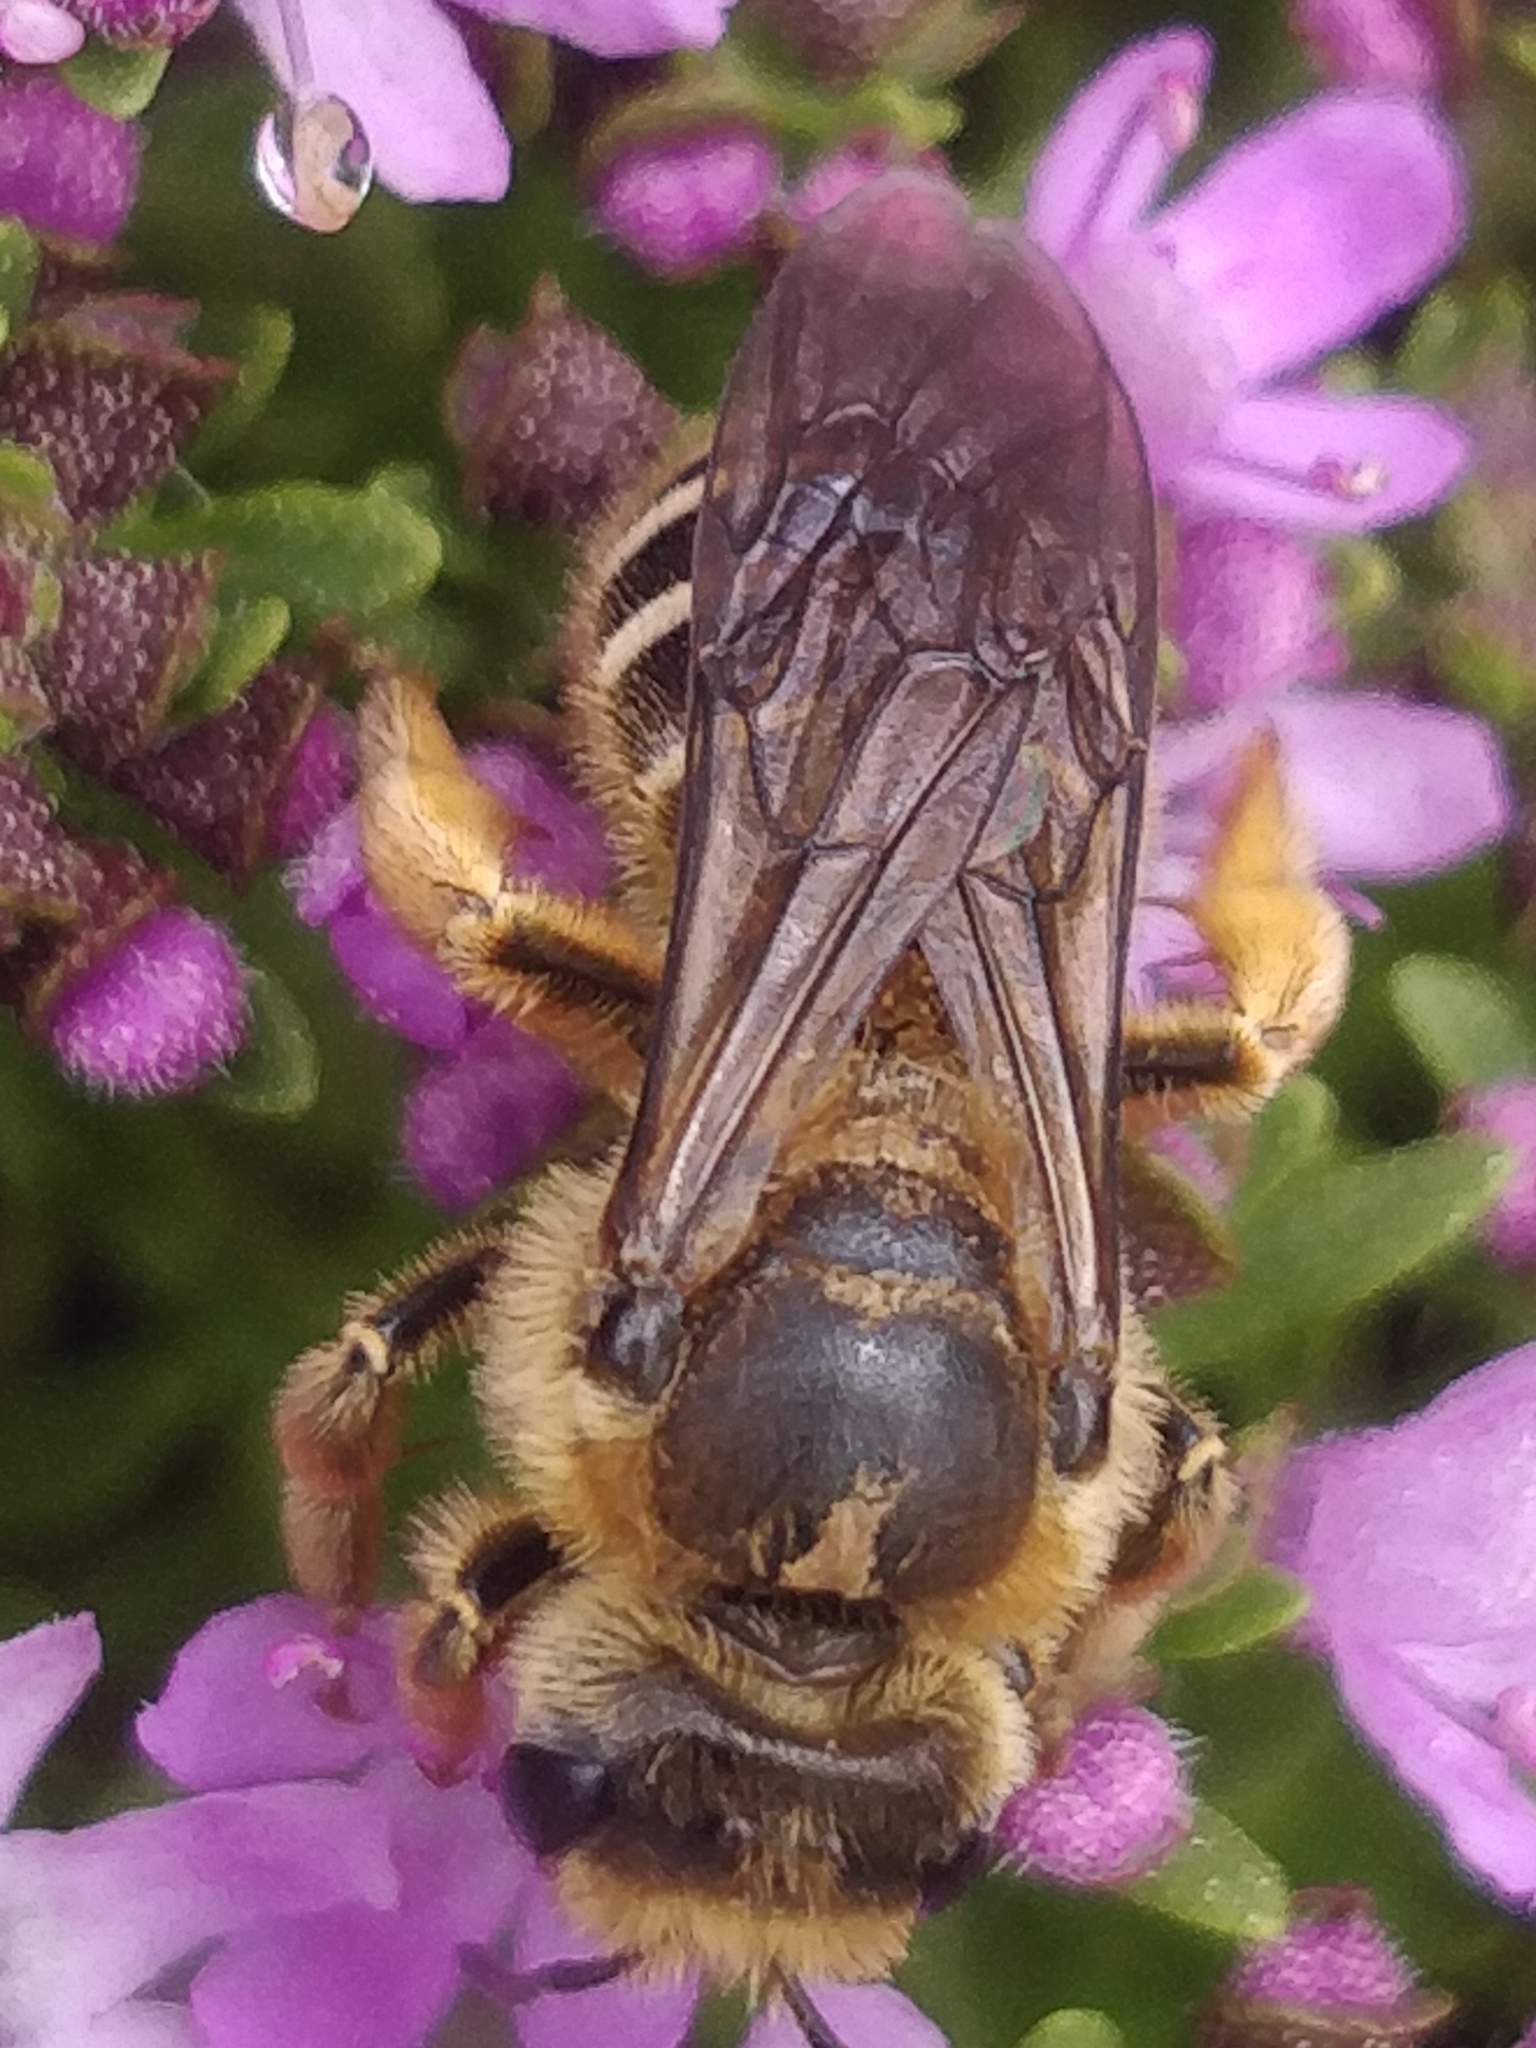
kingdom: Animalia
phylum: Arthropoda
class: Insecta
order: Hymenoptera
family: Halictidae
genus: Halictus
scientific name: Halictus frontalis
